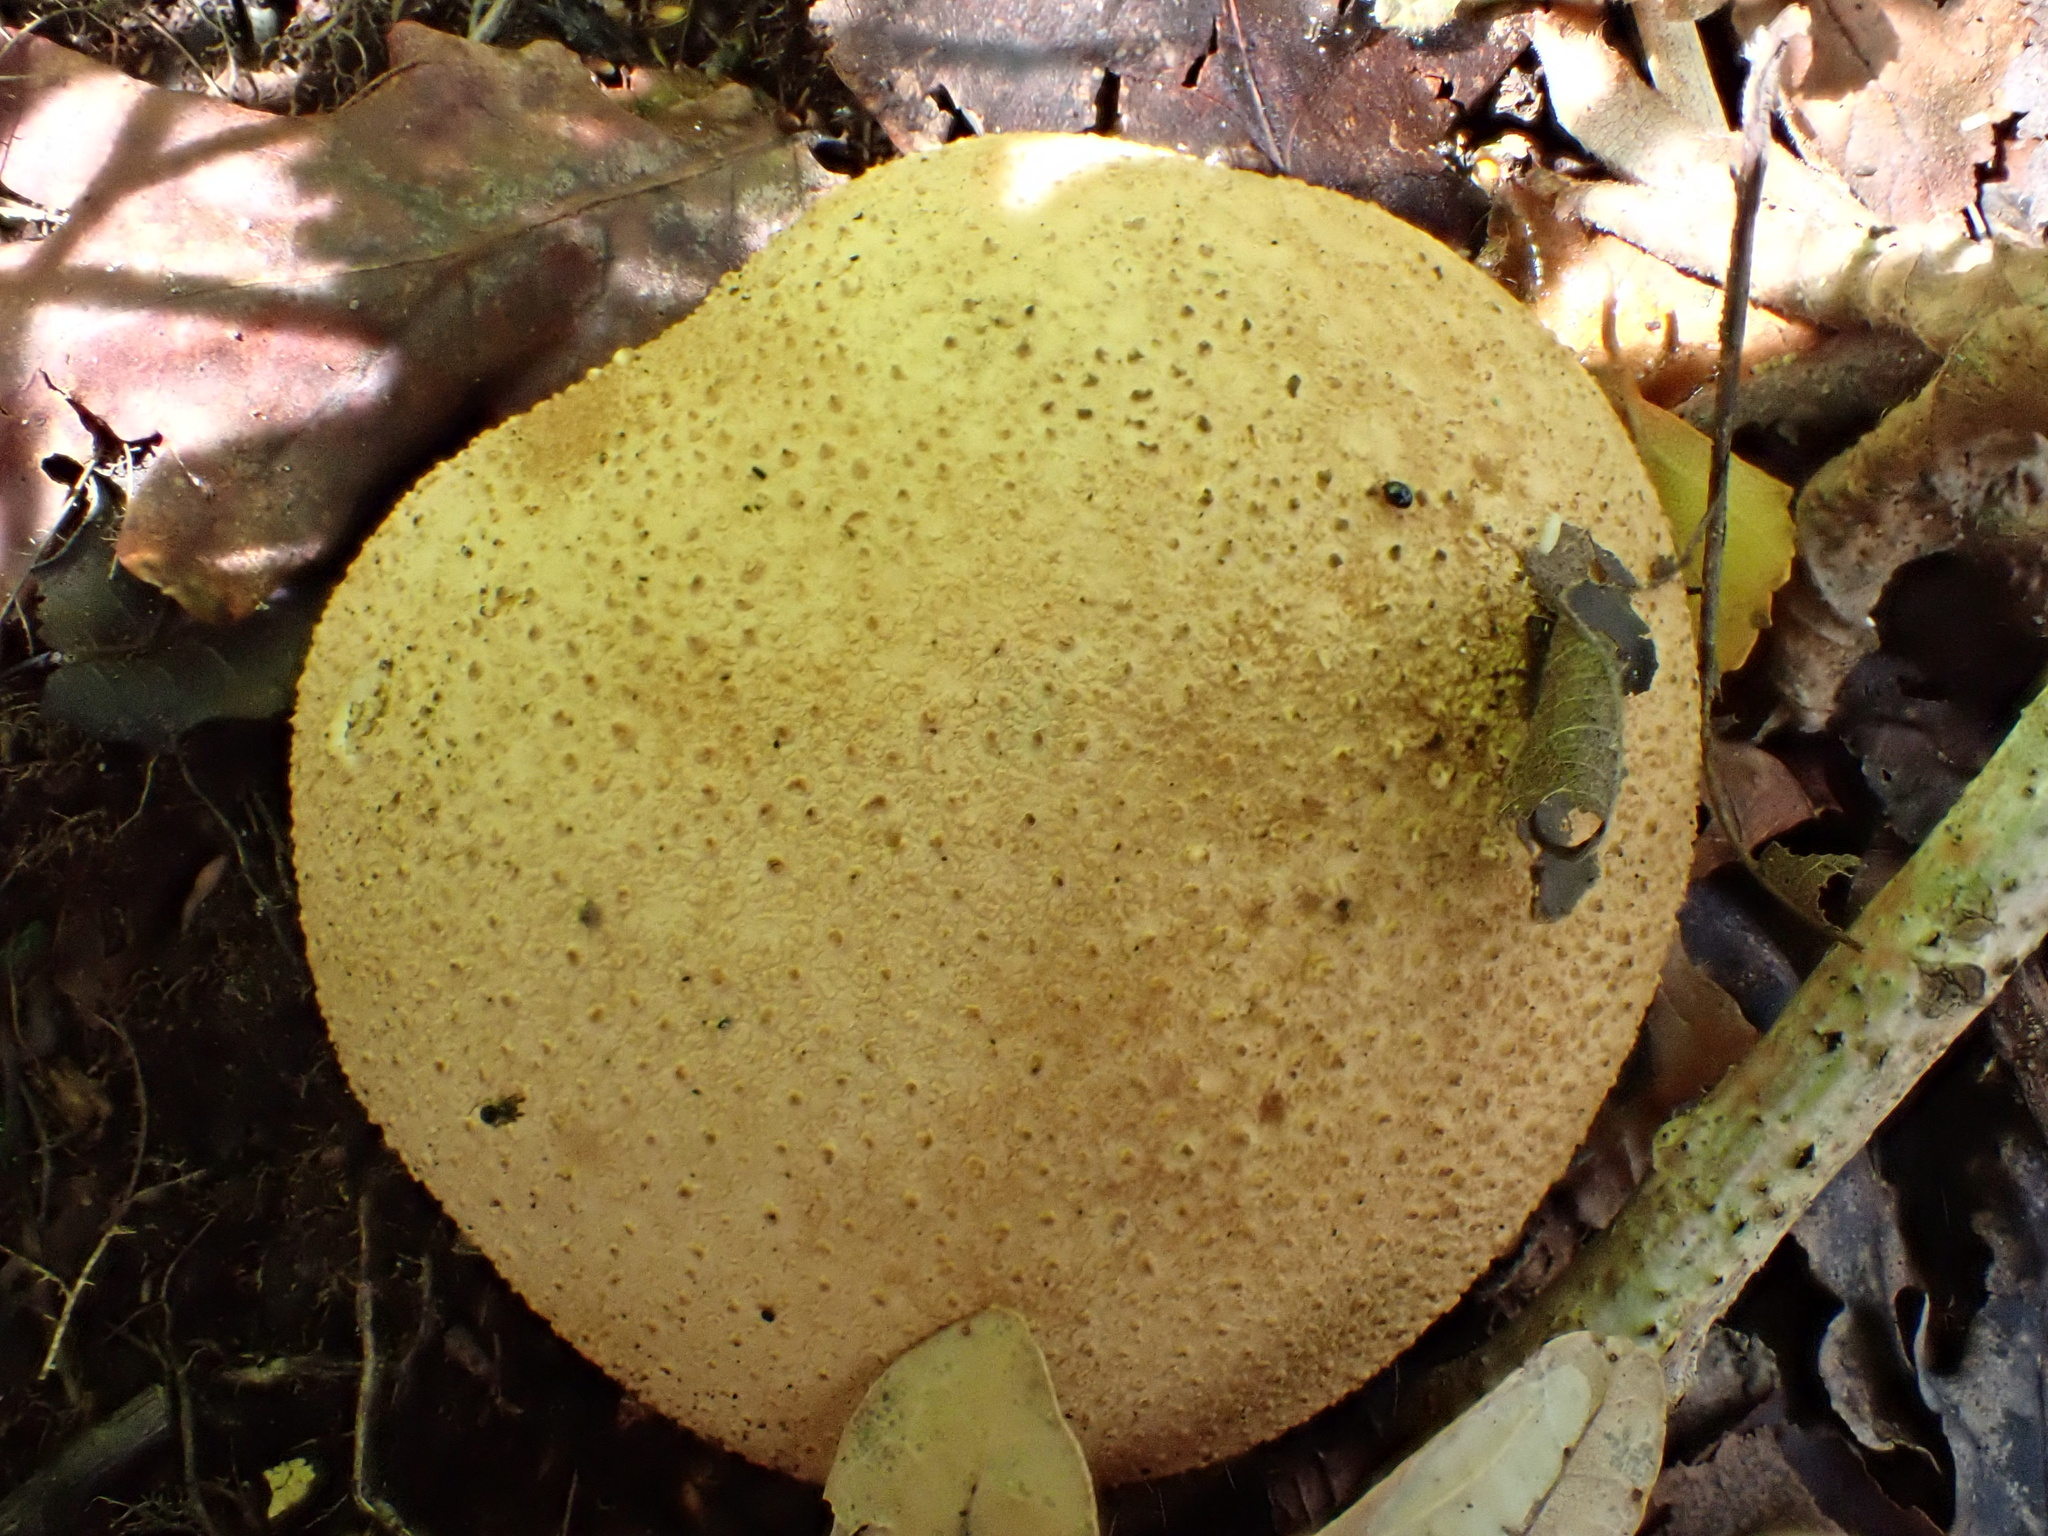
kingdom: Fungi
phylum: Basidiomycota
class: Agaricomycetes
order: Boletales
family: Sclerodermataceae
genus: Scleroderma
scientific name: Scleroderma citrinum
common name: Common earthball
